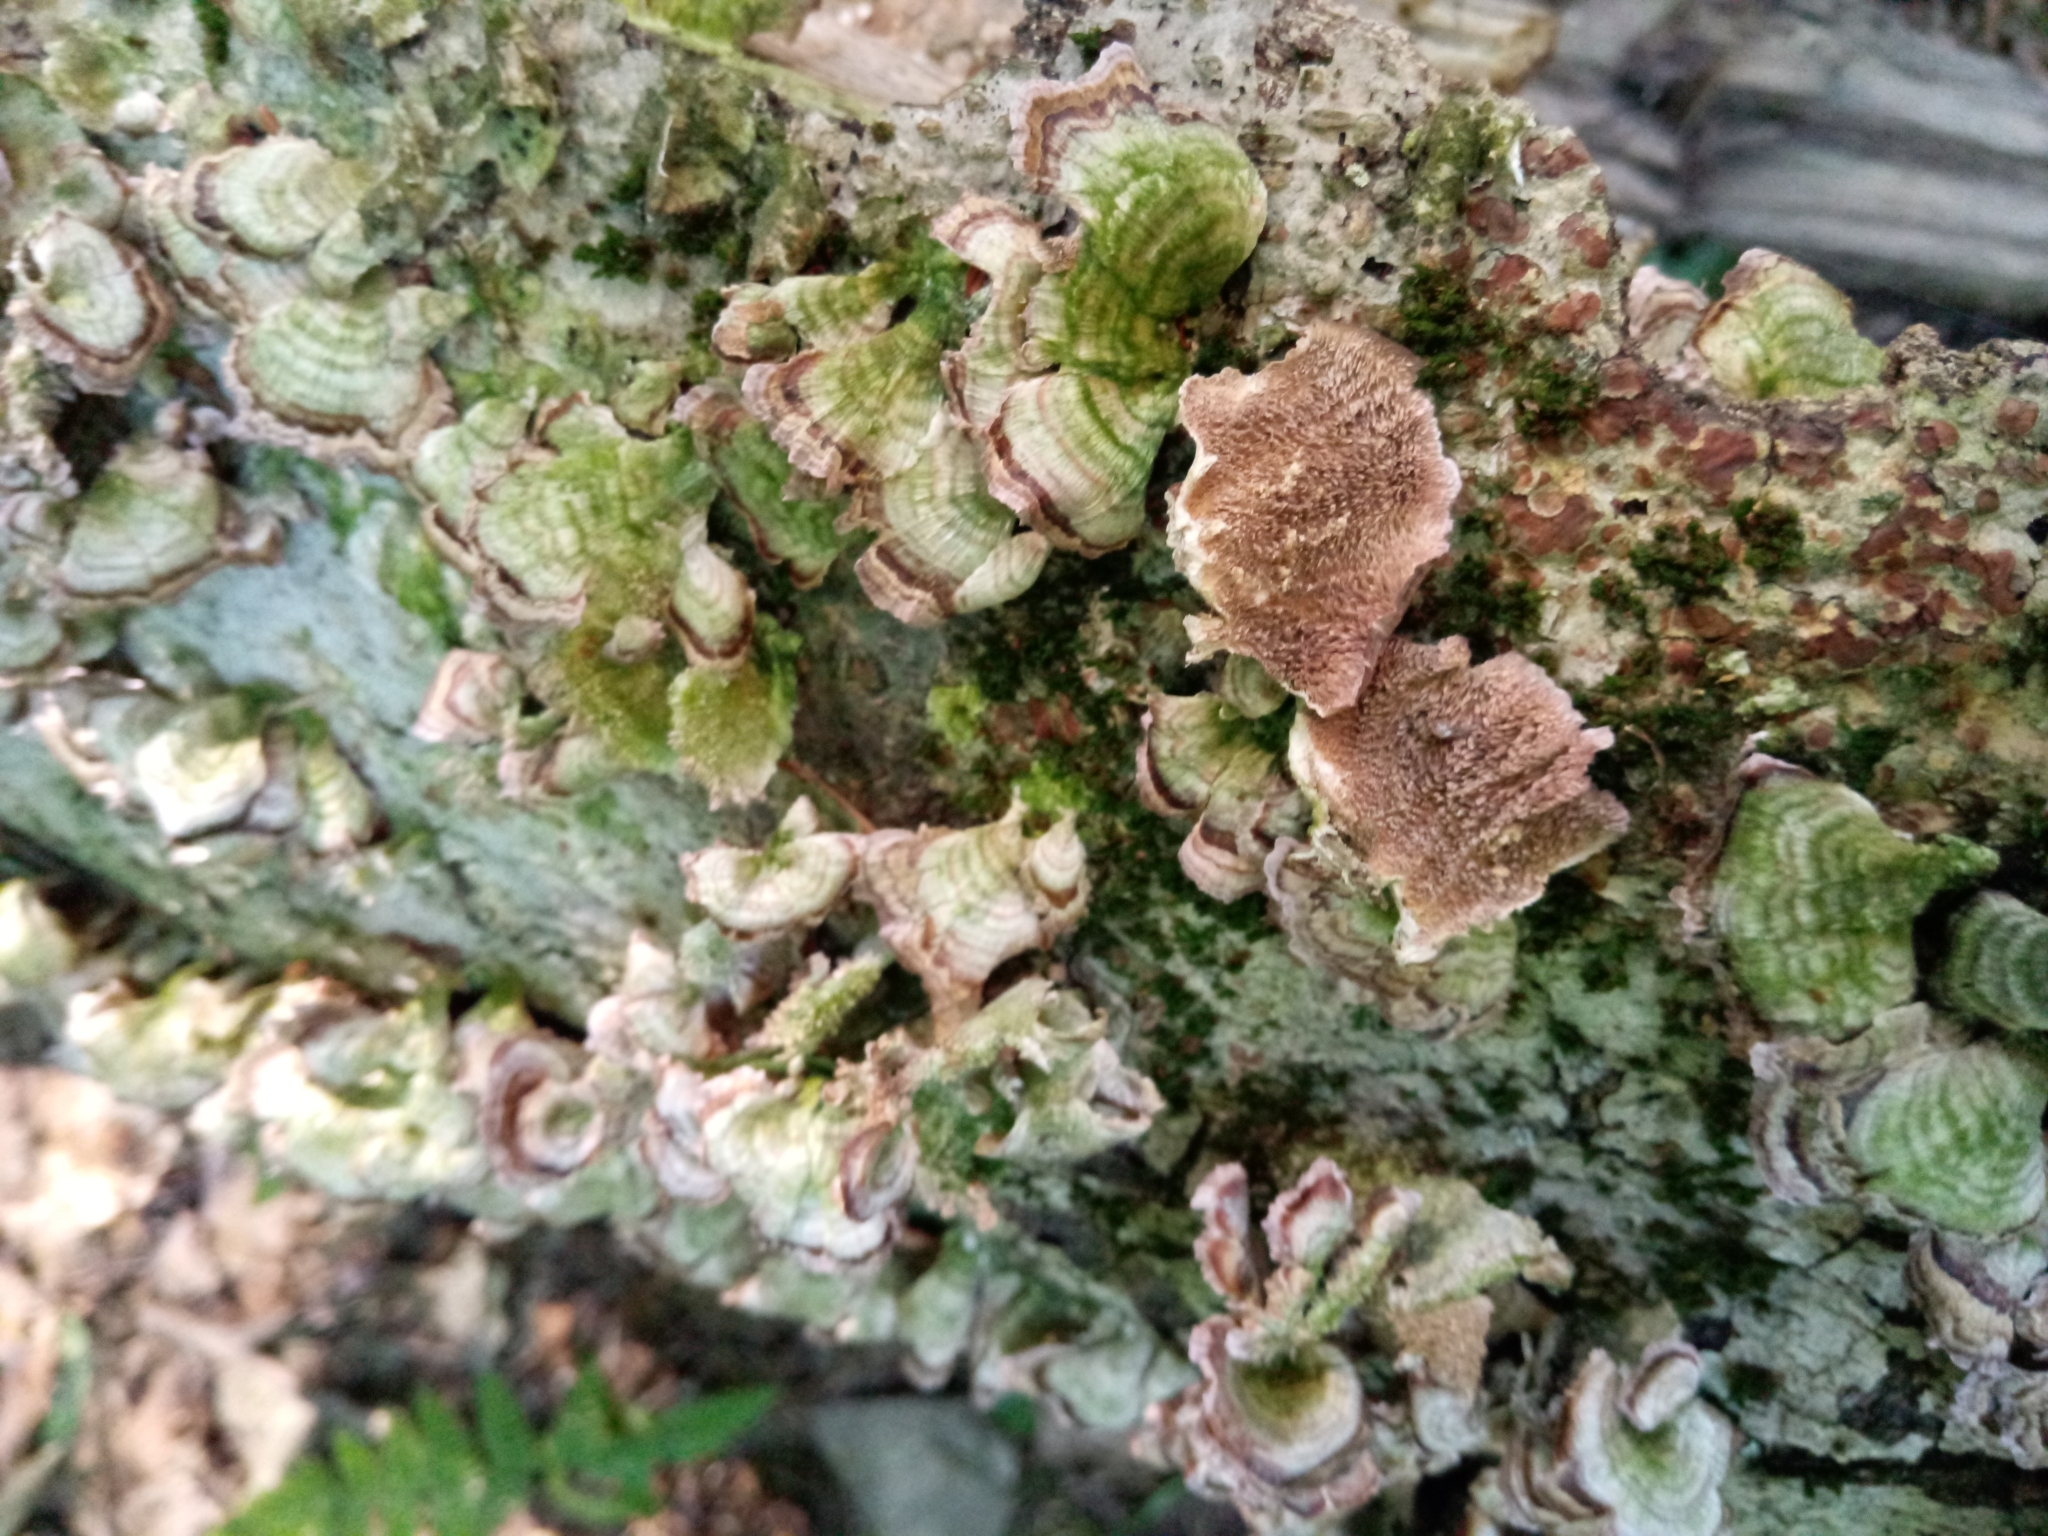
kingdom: Fungi
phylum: Basidiomycota
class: Agaricomycetes
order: Hymenochaetales
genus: Trichaptum
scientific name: Trichaptum biforme
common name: Violet-toothed polypore
